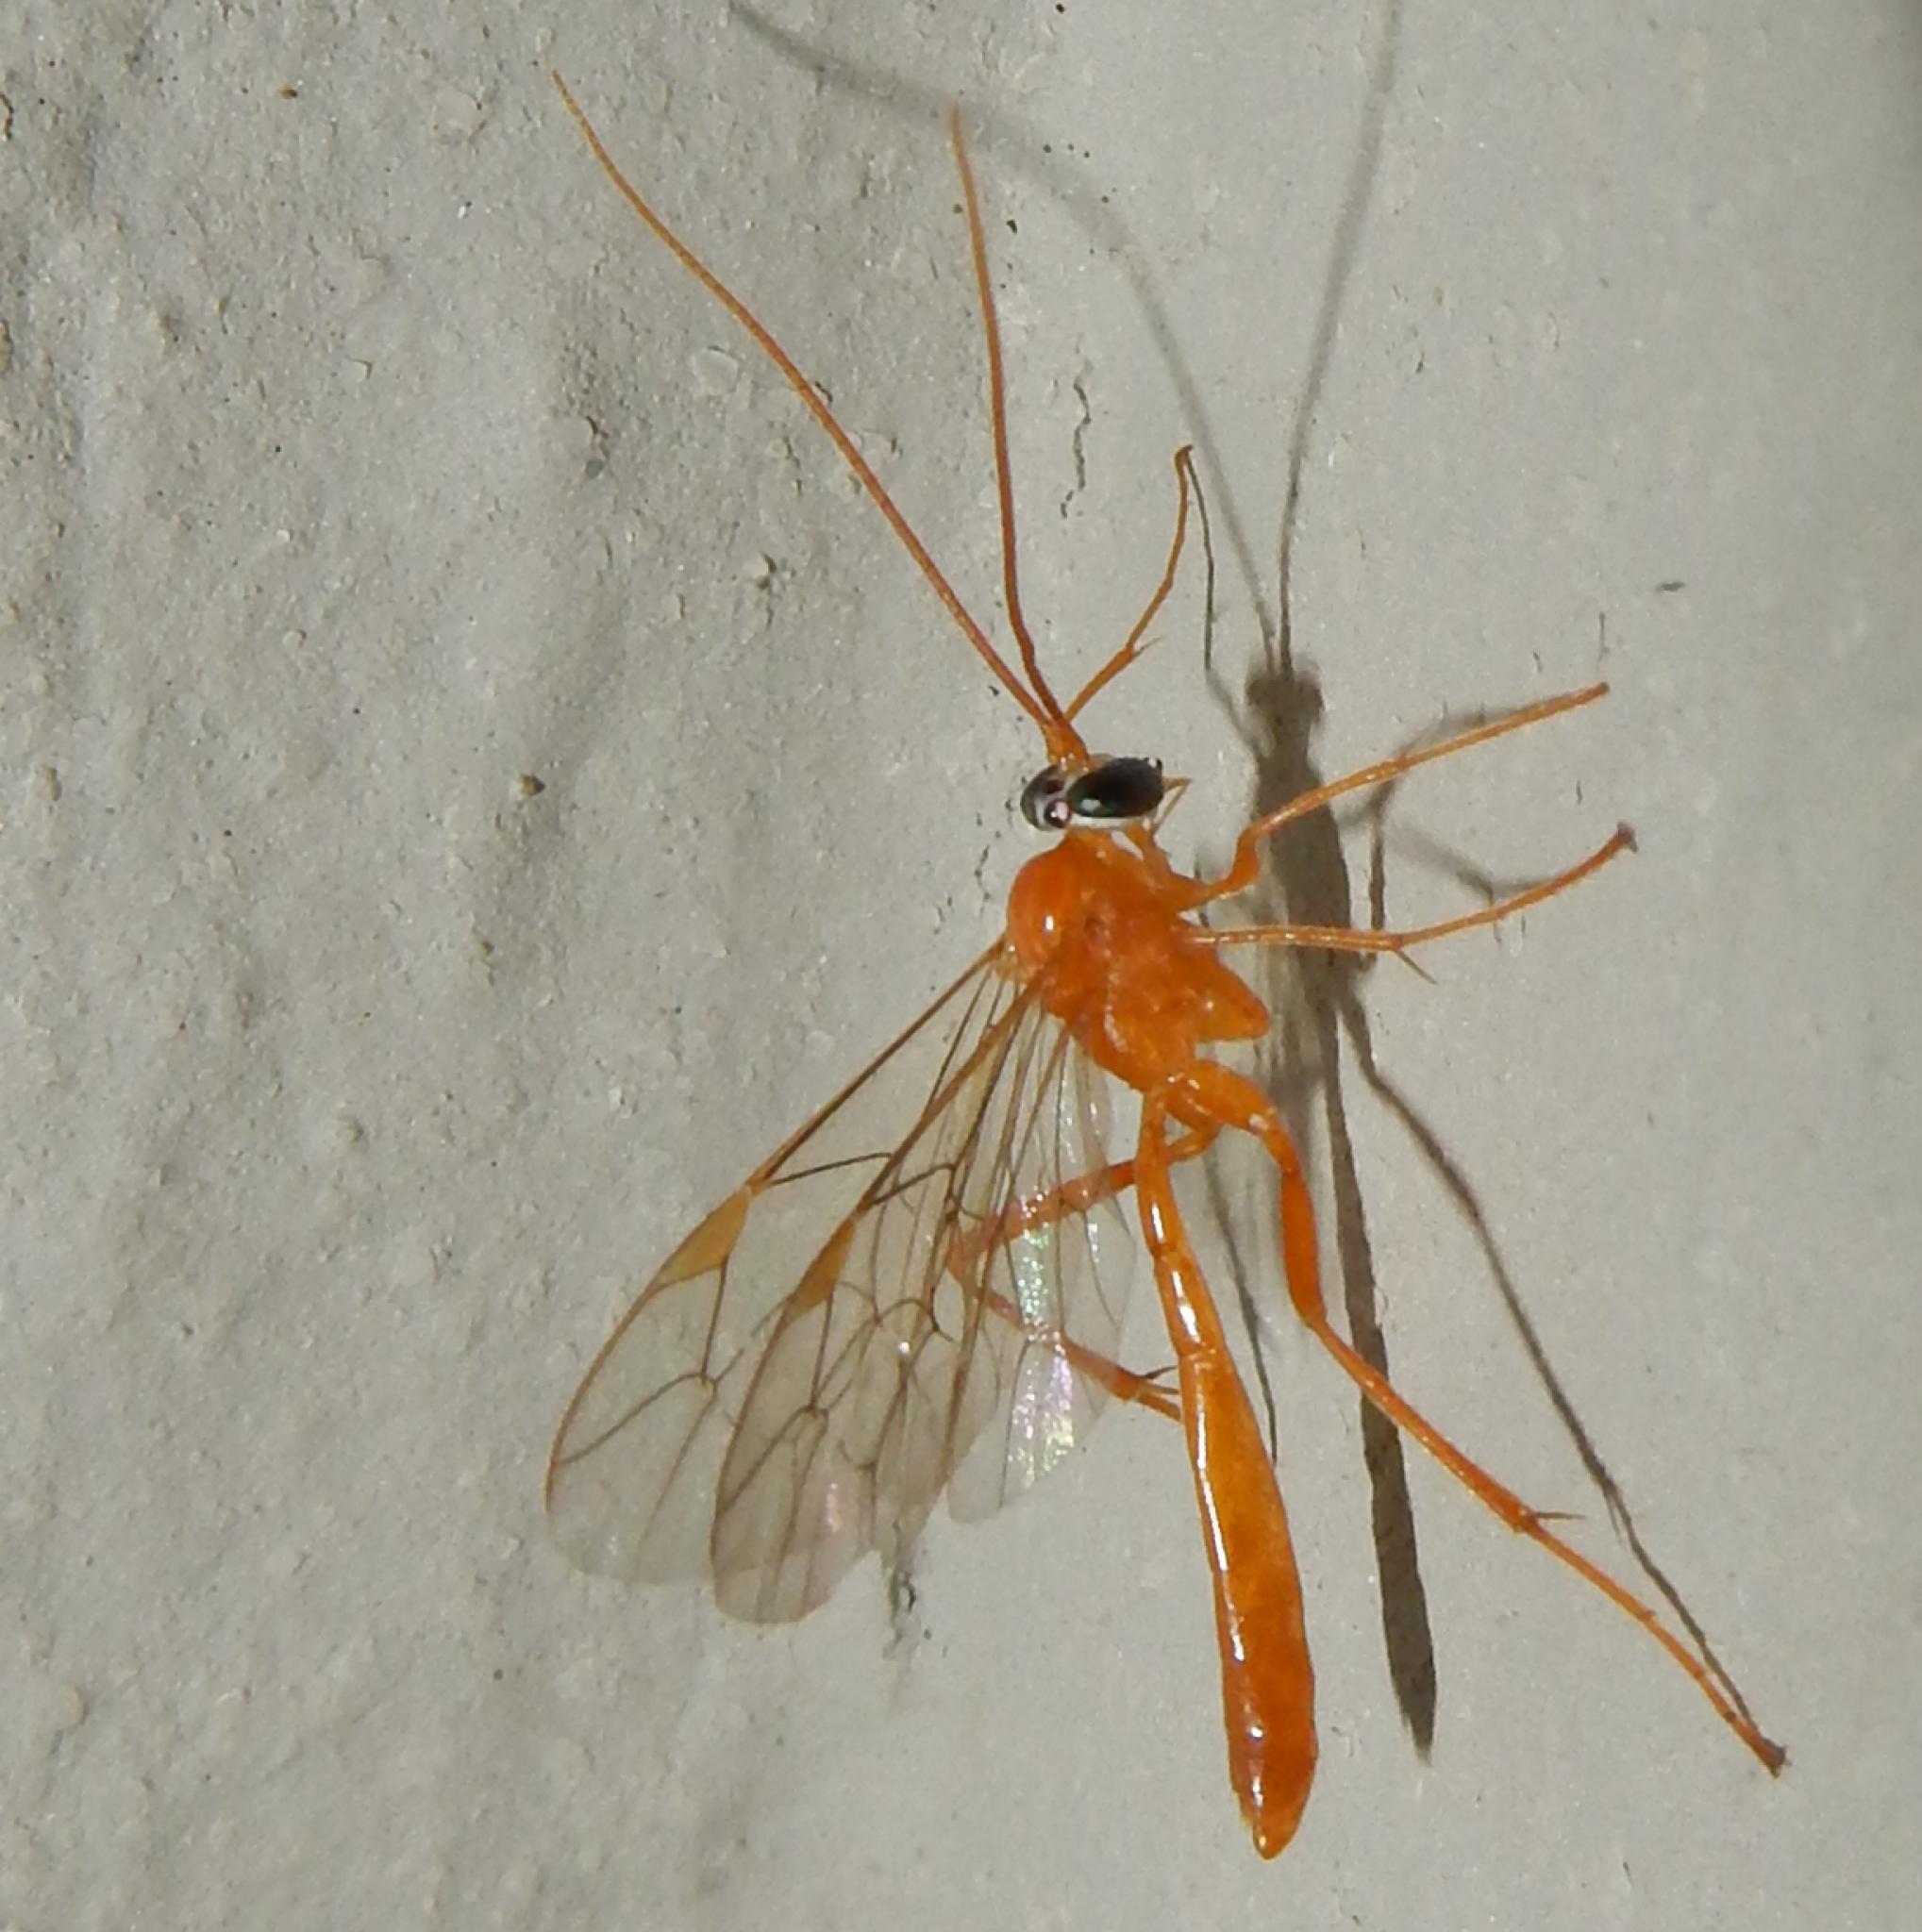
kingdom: Animalia
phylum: Arthropoda
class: Insecta
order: Hymenoptera
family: Ichneumonidae
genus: Netelia
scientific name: Netelia
